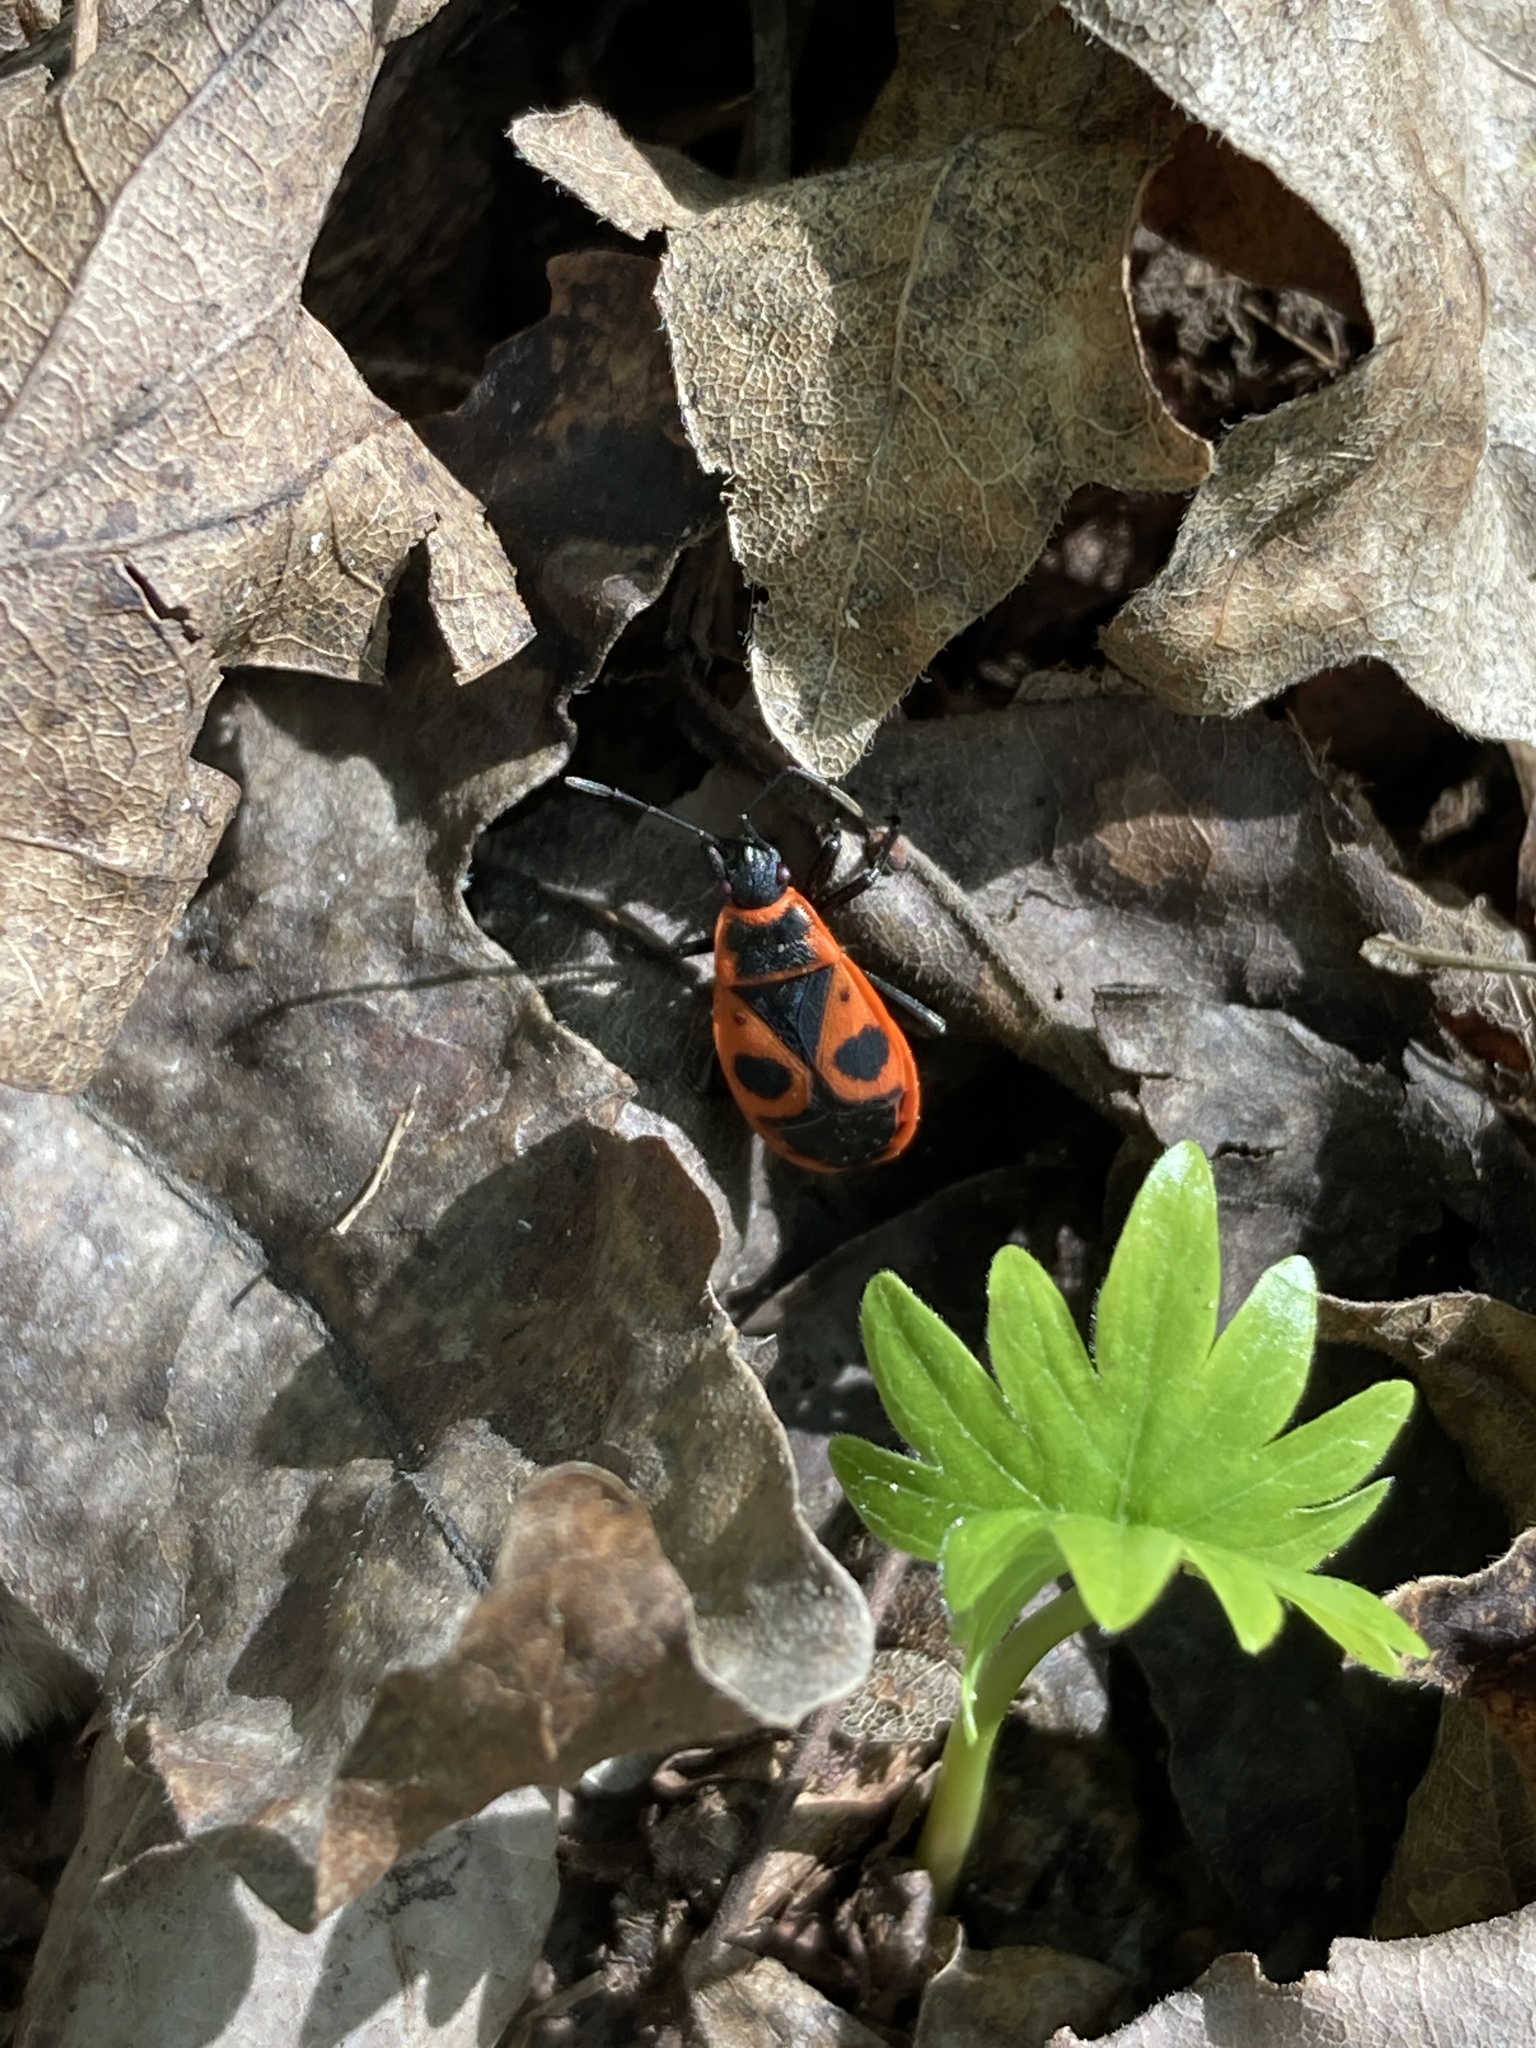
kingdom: Animalia
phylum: Arthropoda
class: Insecta
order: Hemiptera
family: Pyrrhocoridae
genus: Pyrrhocoris
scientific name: Pyrrhocoris apterus
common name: Firebug
